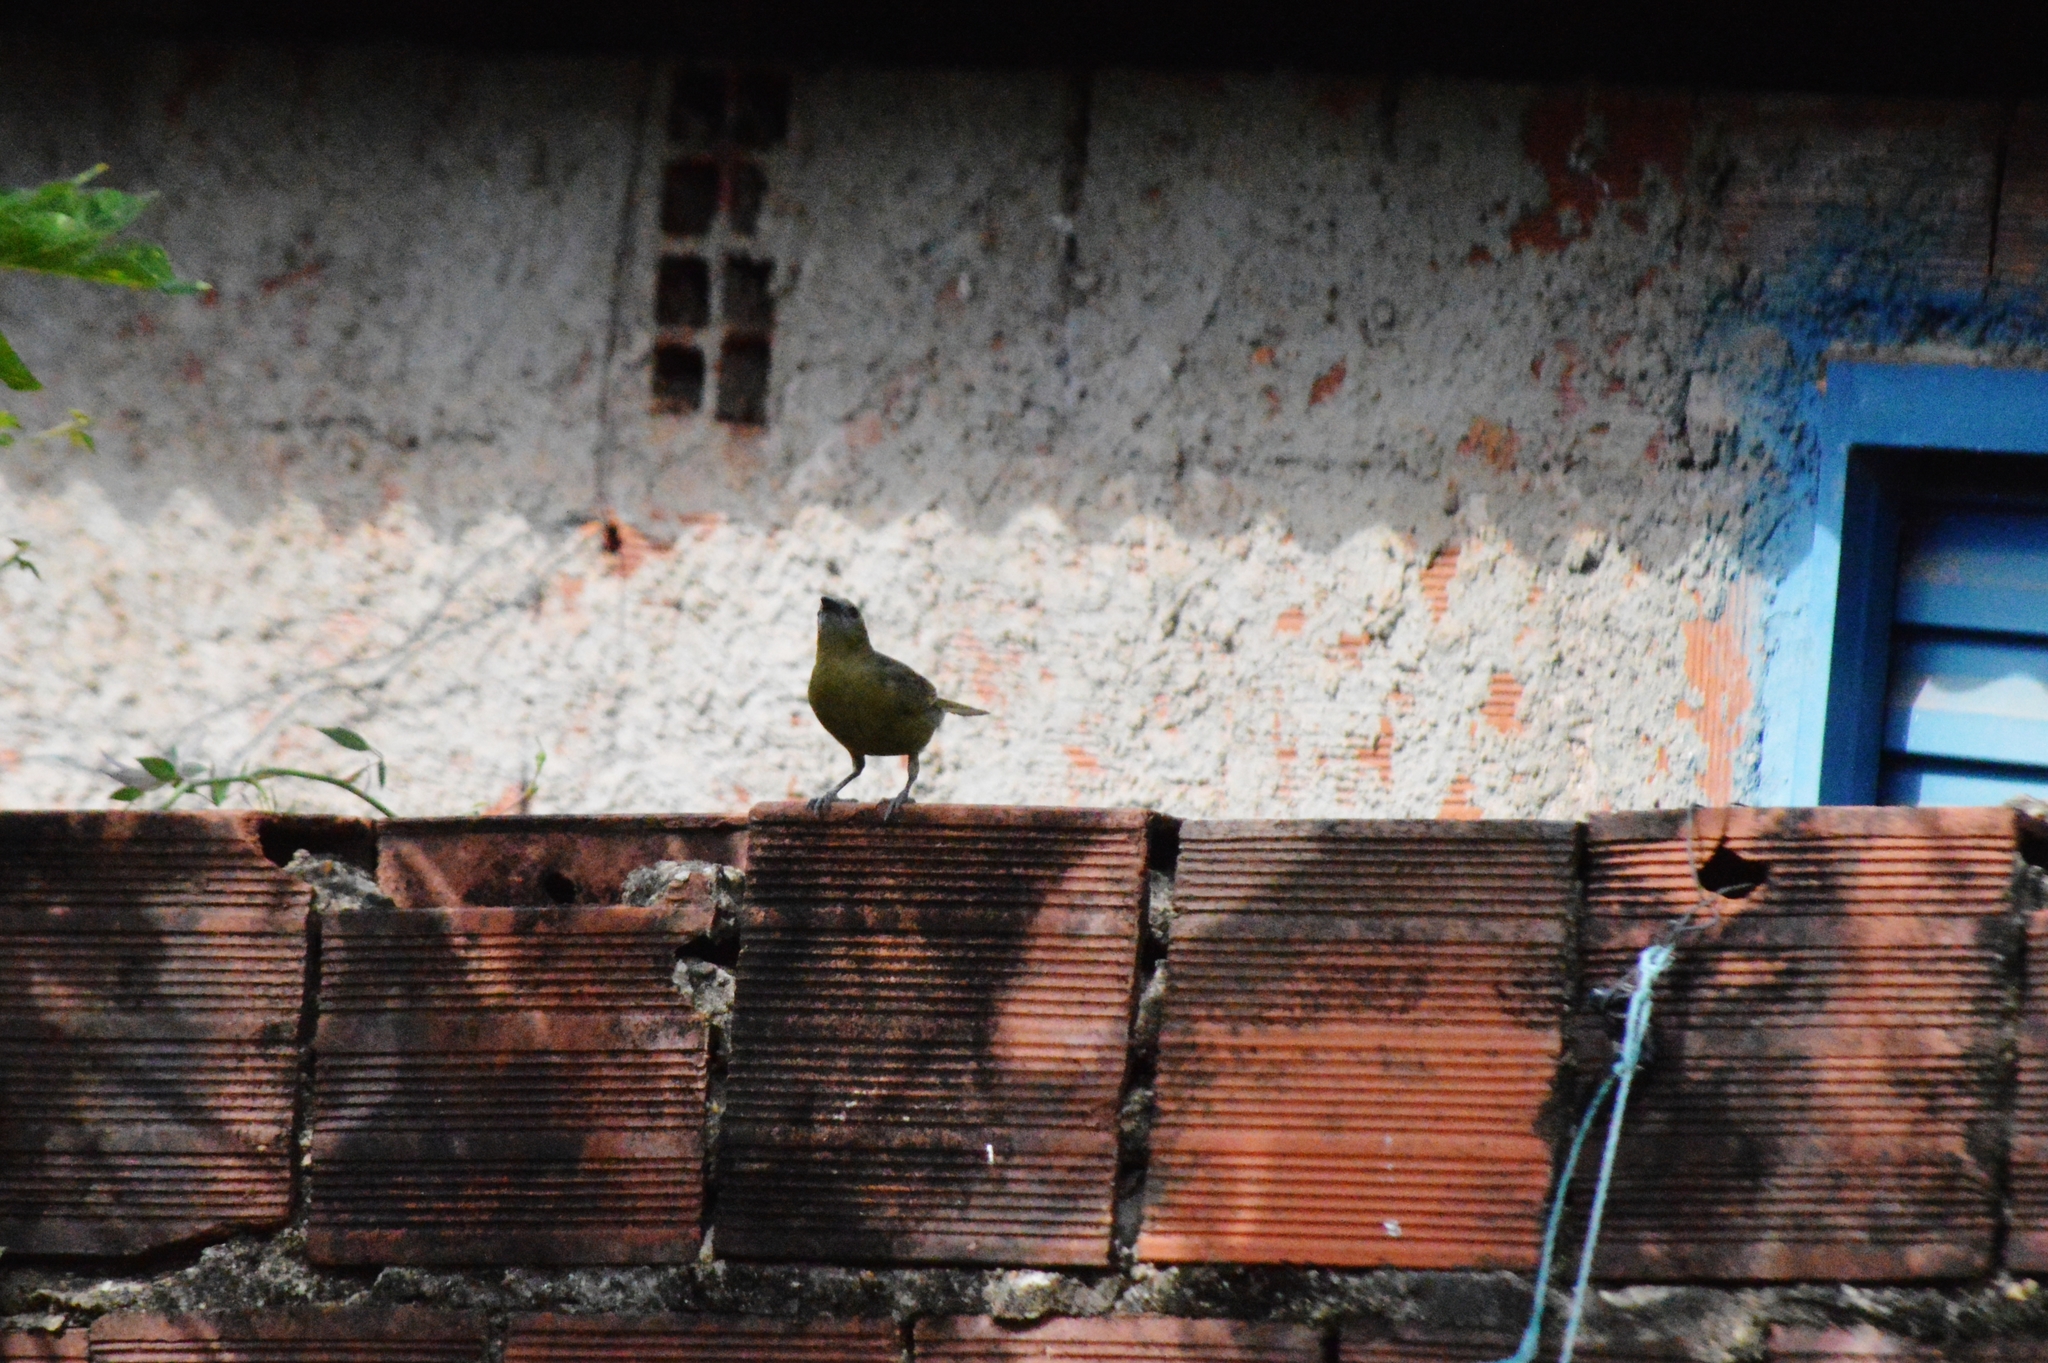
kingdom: Animalia
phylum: Chordata
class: Aves
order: Passeriformes
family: Thraupidae
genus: Thraupis
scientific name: Thraupis palmarum
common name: Palm tanager
